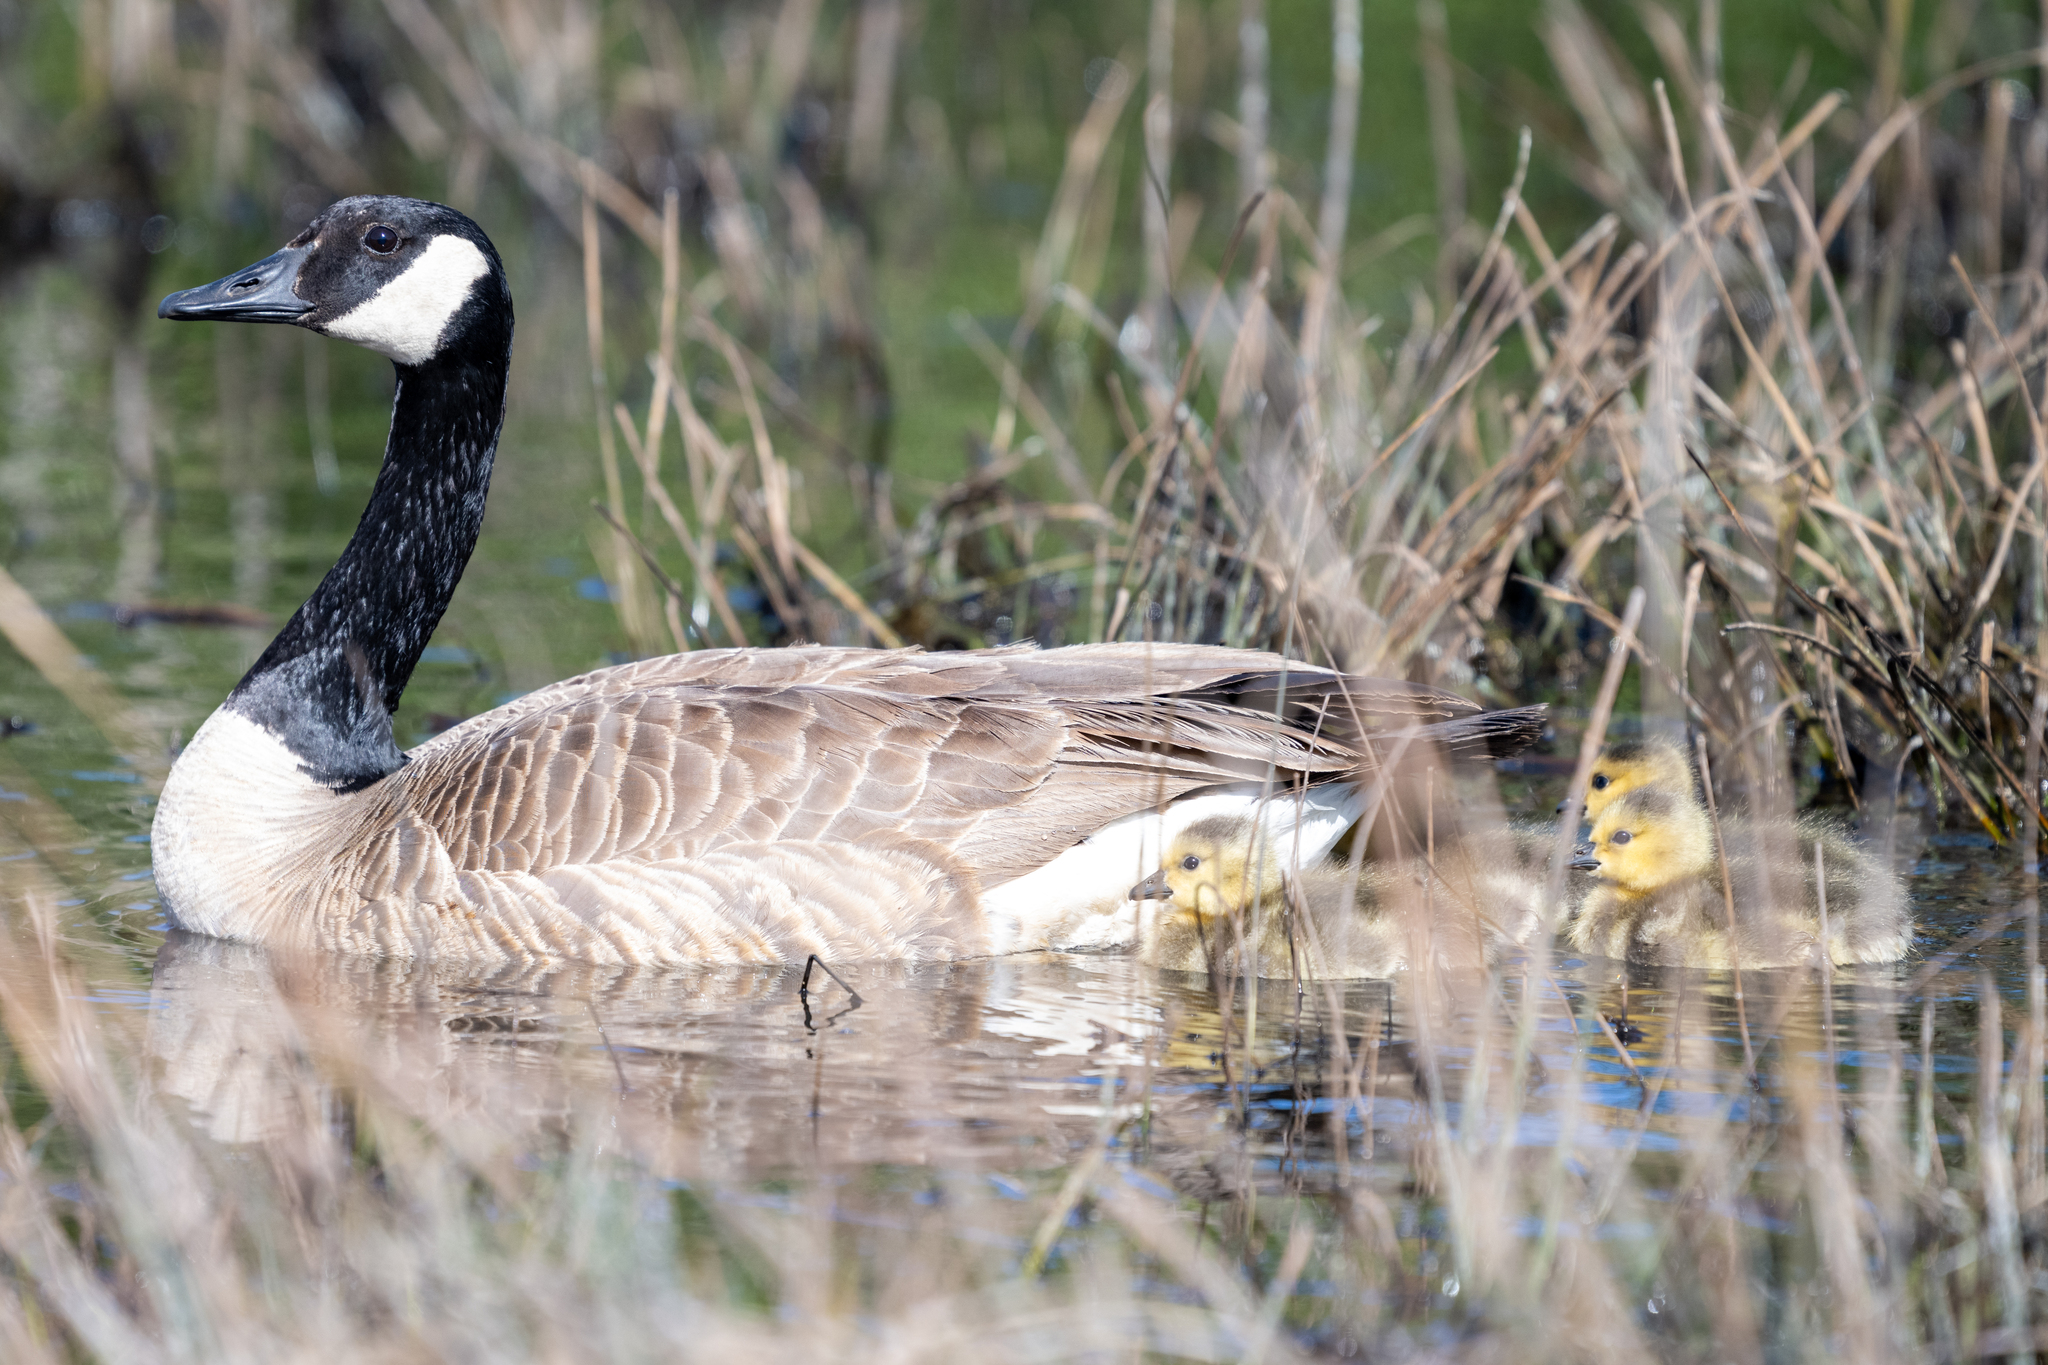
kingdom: Animalia
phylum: Chordata
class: Aves
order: Anseriformes
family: Anatidae
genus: Branta
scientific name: Branta canadensis
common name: Canada goose
